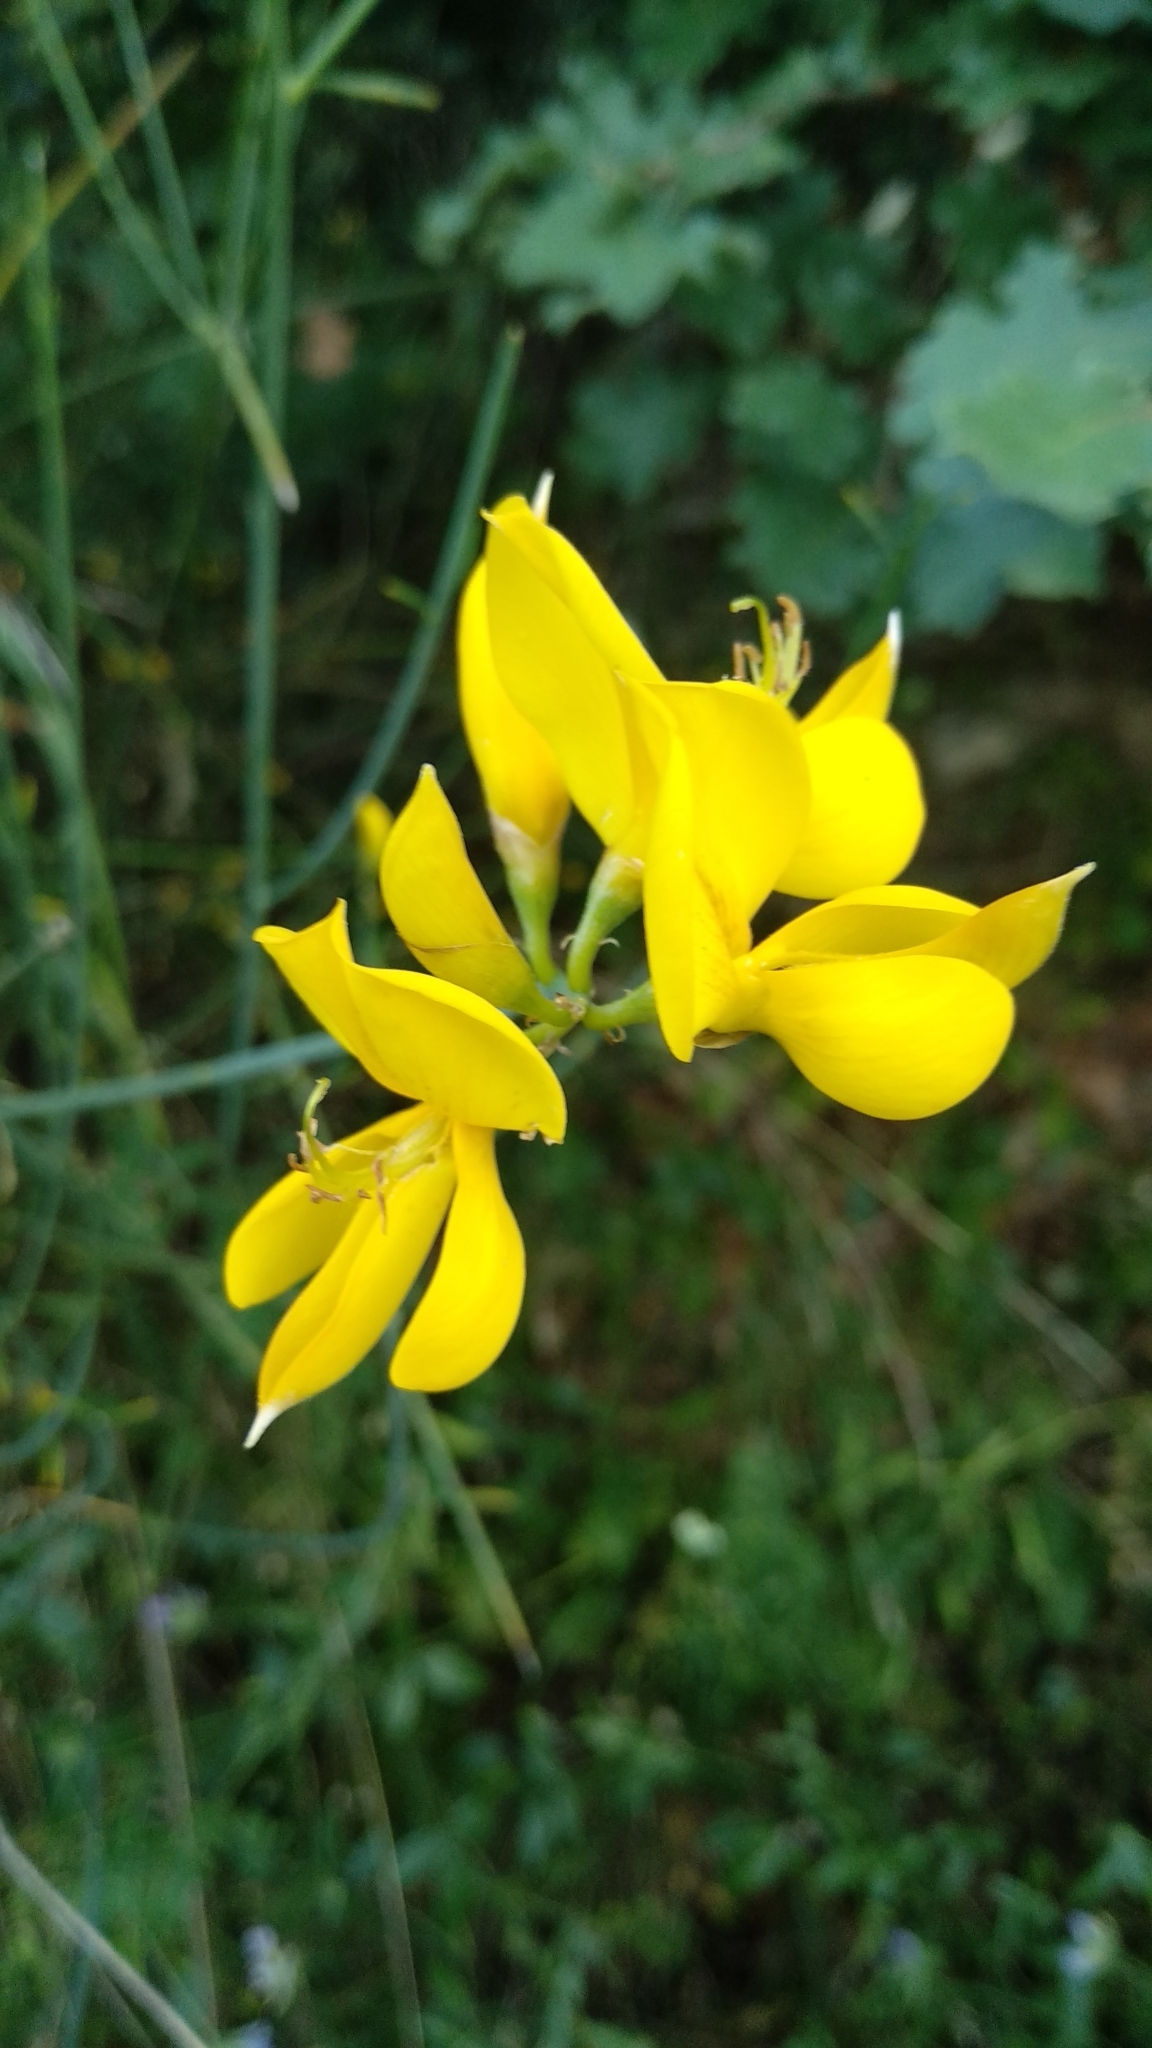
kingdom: Plantae
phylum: Tracheophyta
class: Magnoliopsida
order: Fabales
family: Fabaceae
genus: Spartium
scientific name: Spartium junceum
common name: Spanish broom
